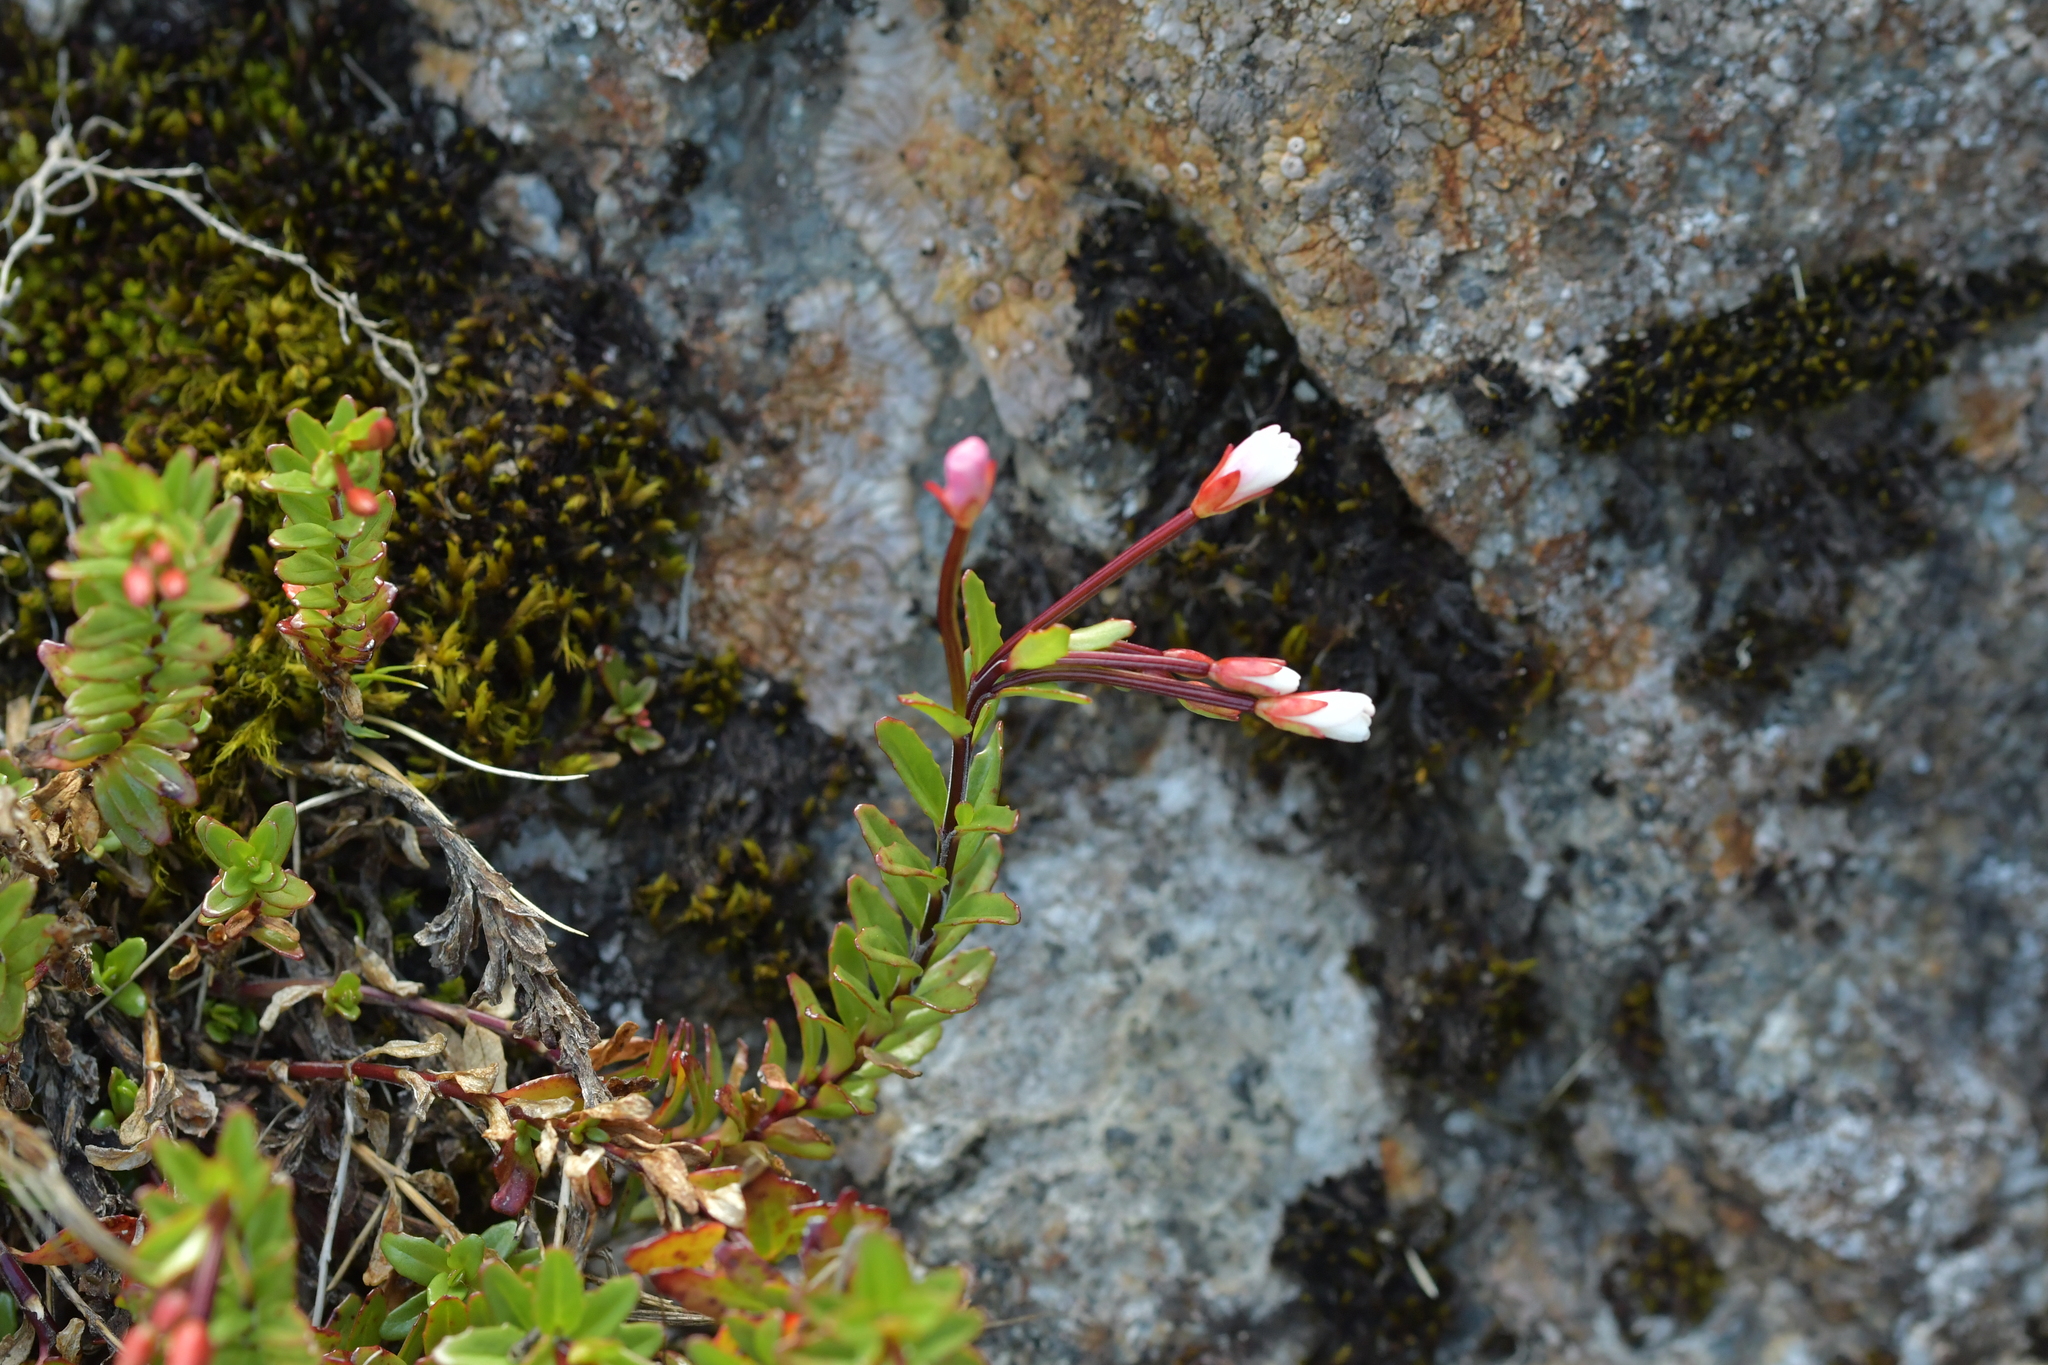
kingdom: Plantae
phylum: Tracheophyta
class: Magnoliopsida
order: Myrtales
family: Onagraceae
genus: Epilobium
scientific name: Epilobium glabellum
